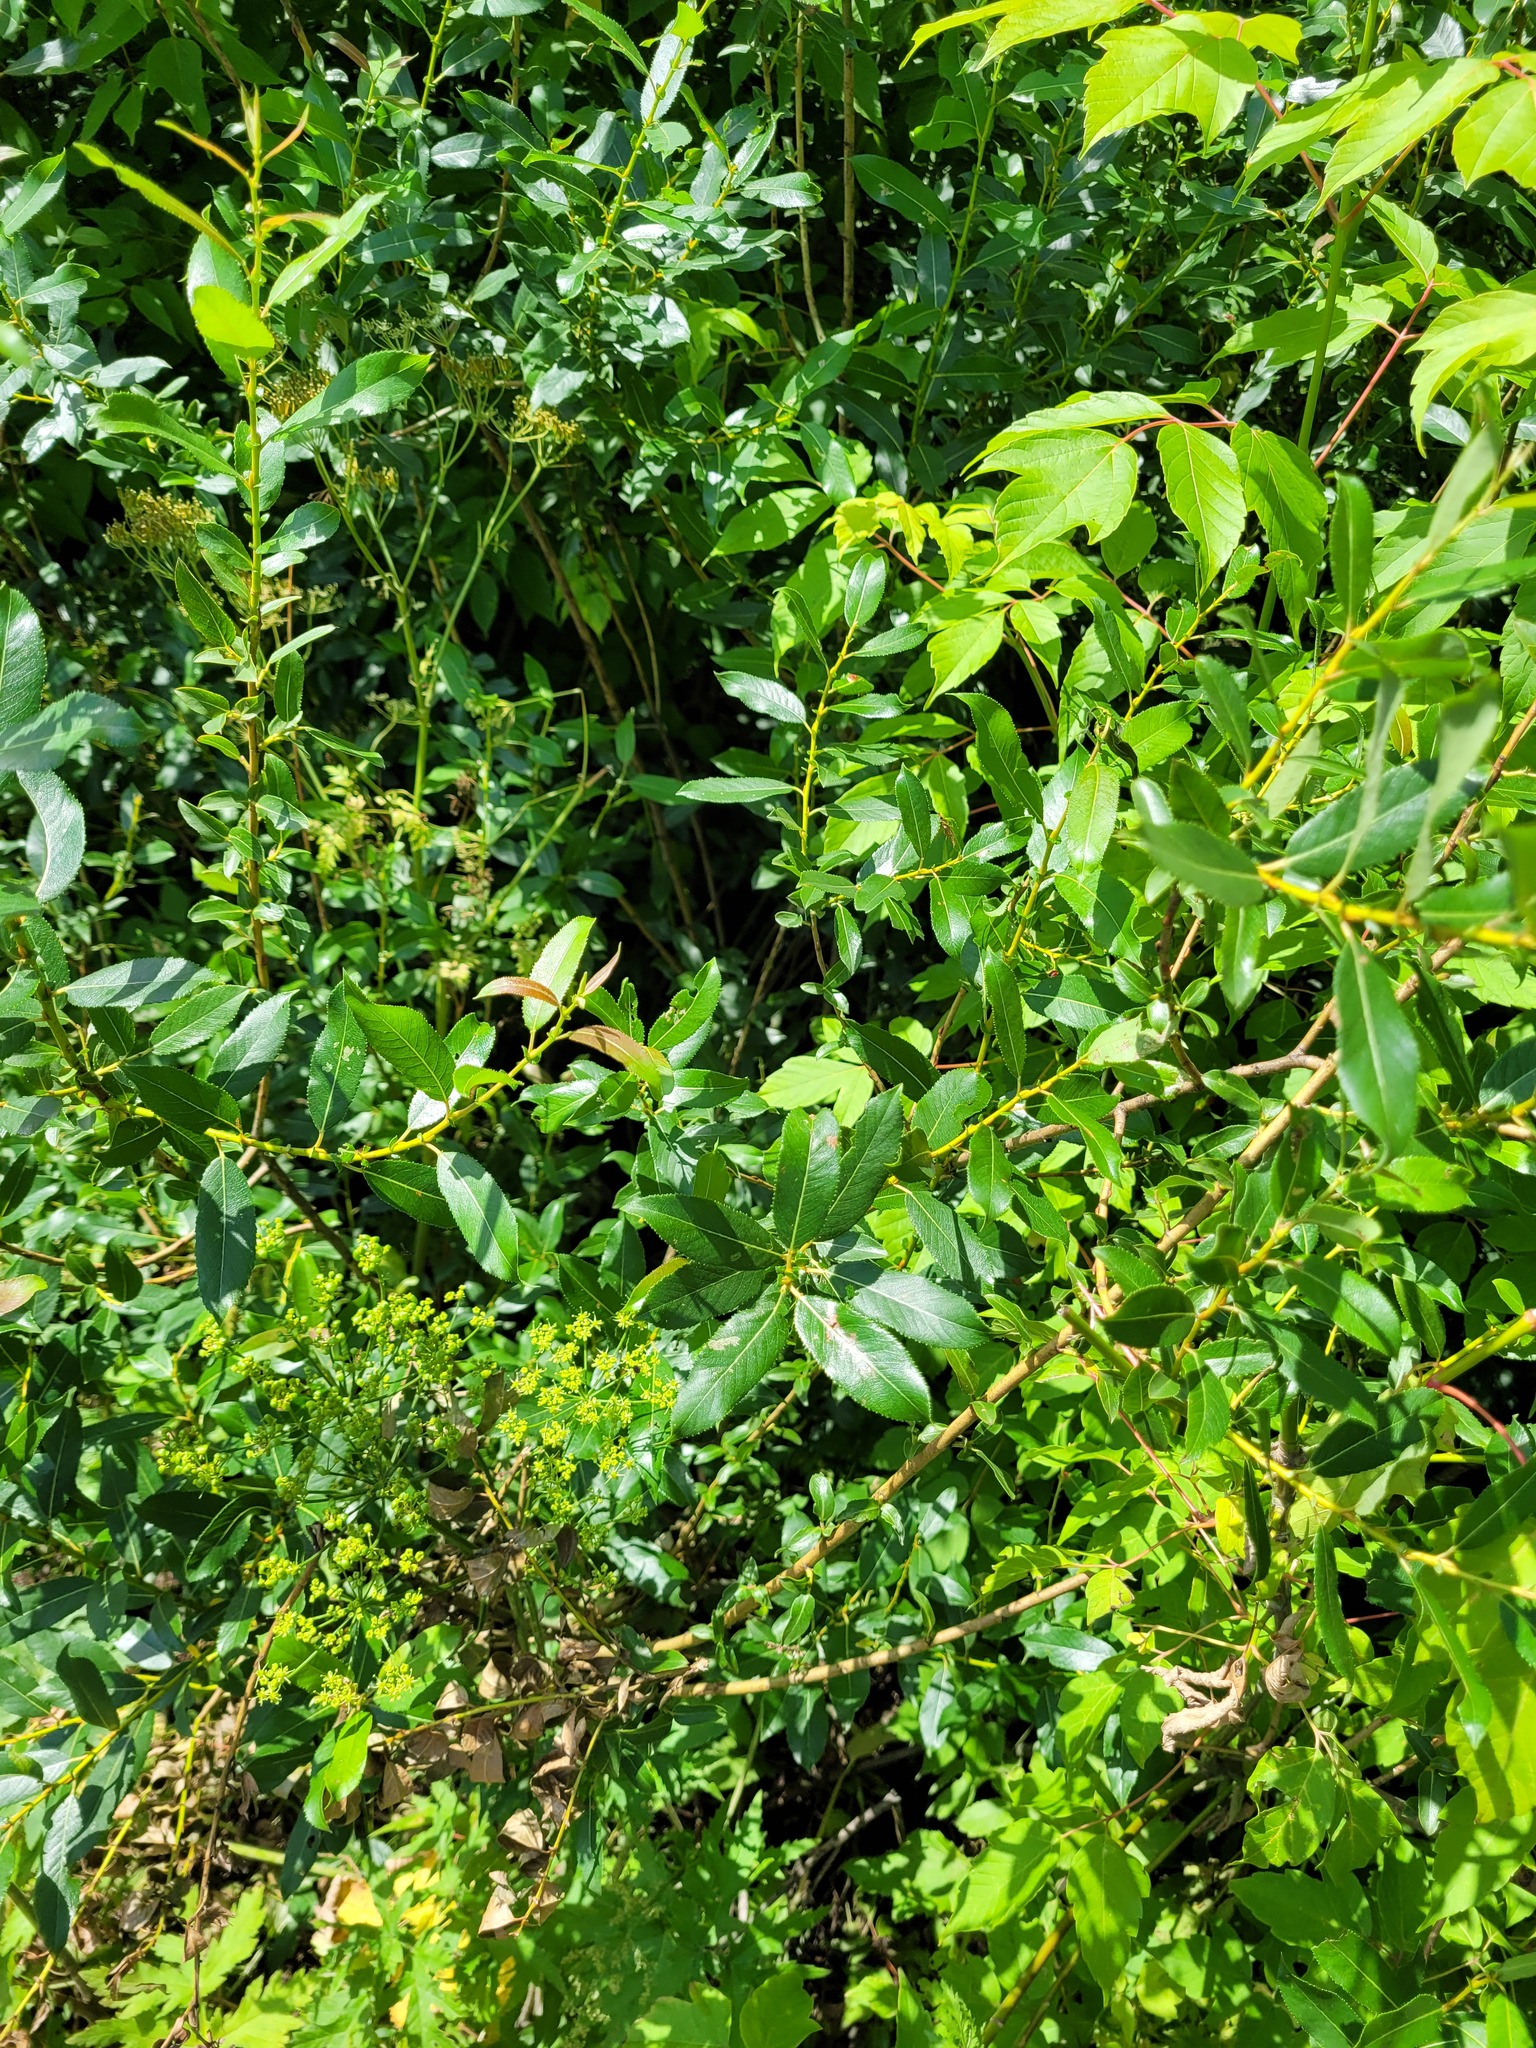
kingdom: Plantae
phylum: Tracheophyta
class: Magnoliopsida
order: Malpighiales
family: Salicaceae
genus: Salix
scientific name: Salix triandra
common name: Almond willow
